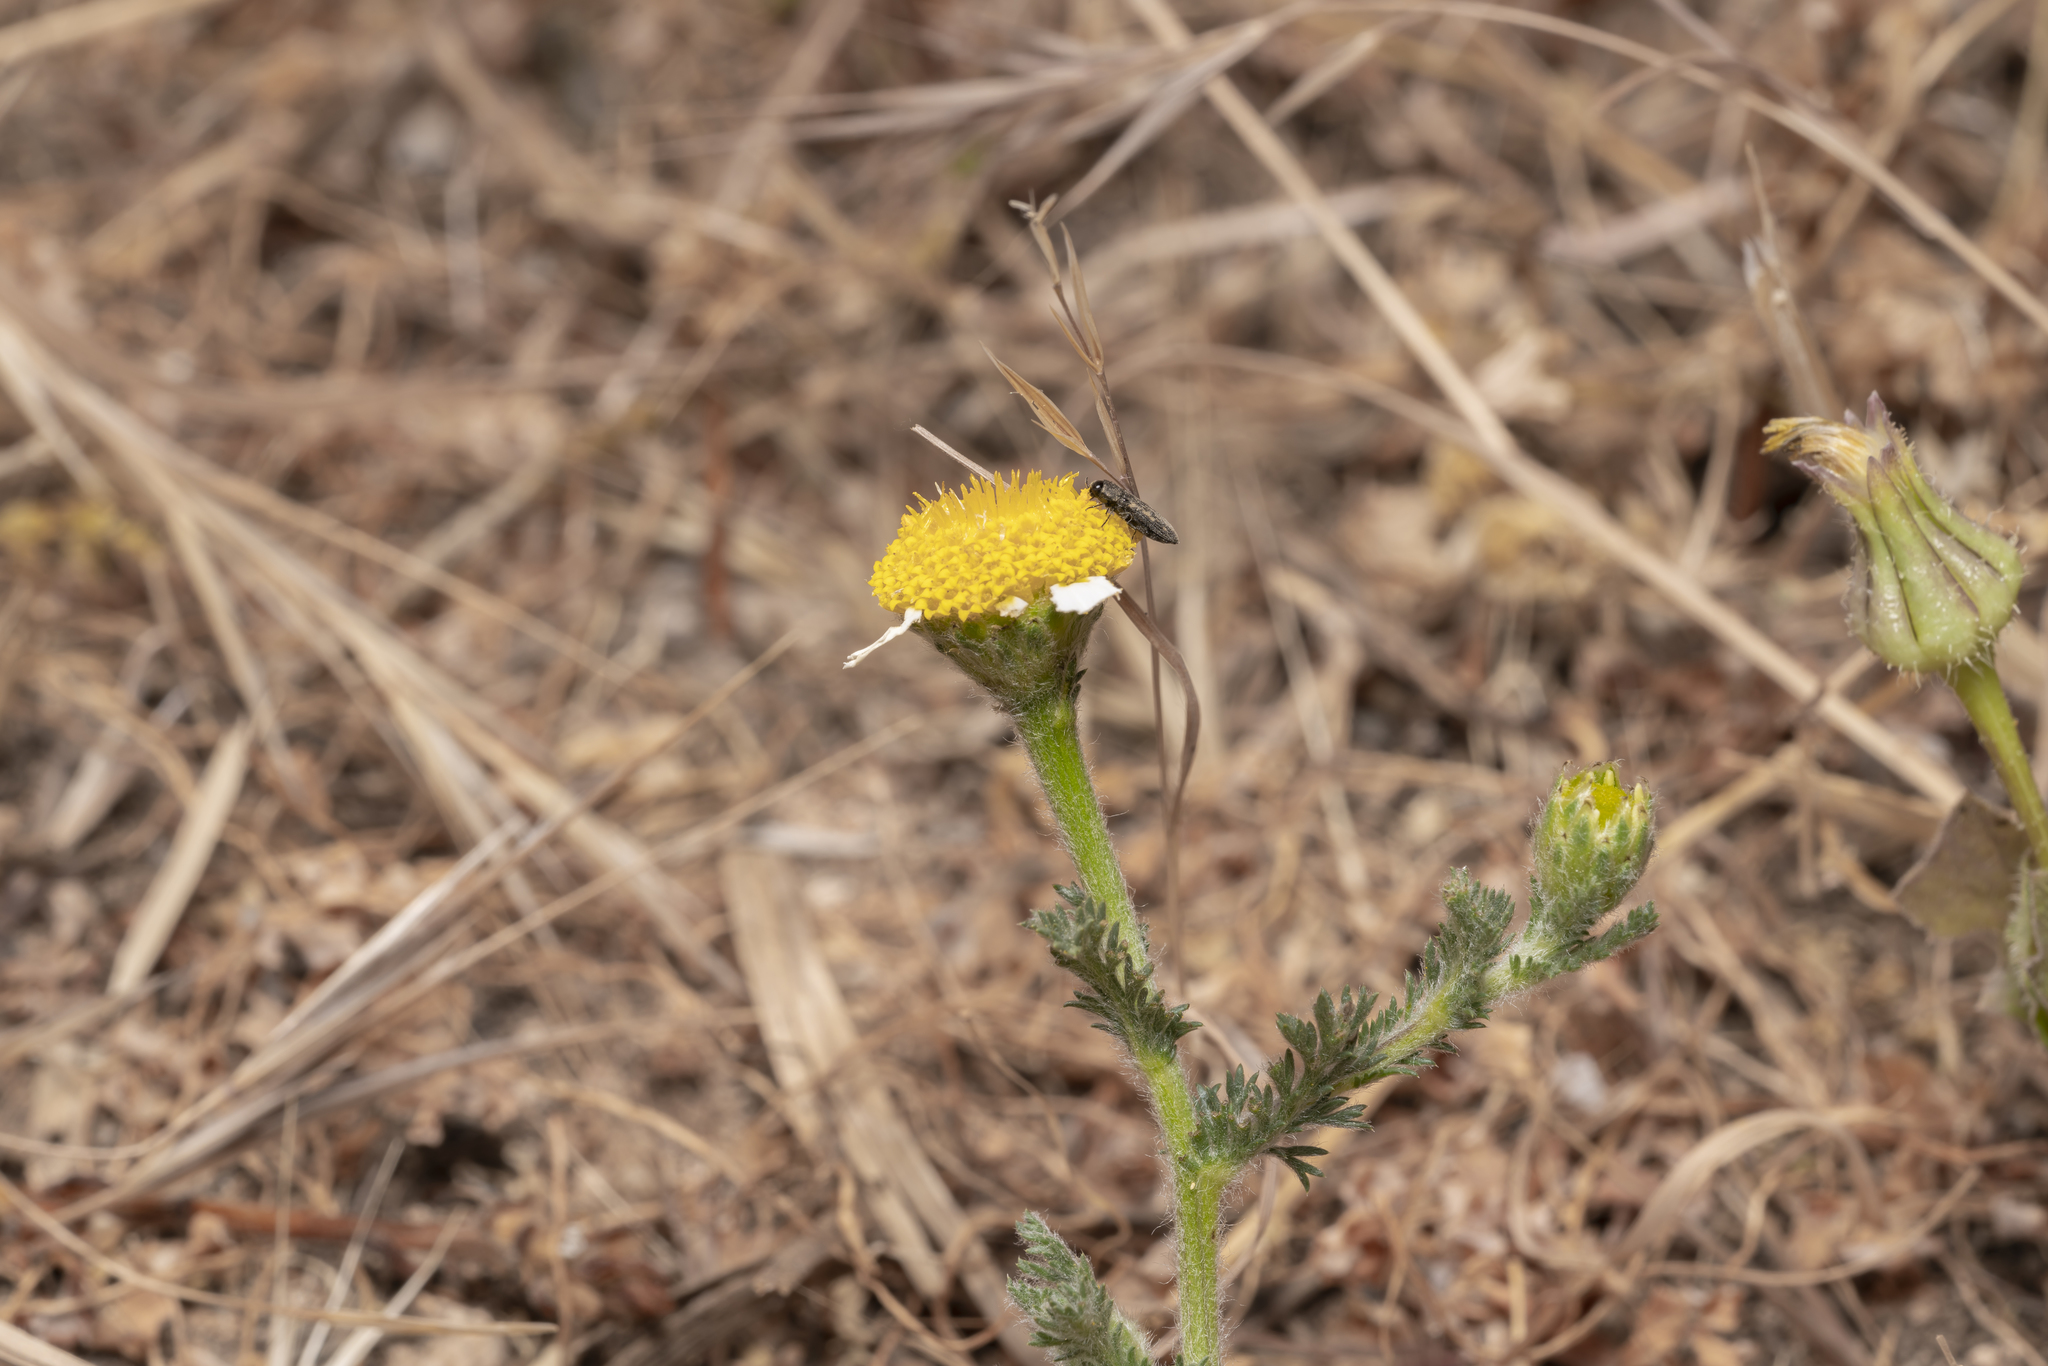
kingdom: Plantae
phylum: Tracheophyta
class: Magnoliopsida
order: Asterales
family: Asteraceae
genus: Anthemis
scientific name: Anthemis rigida
